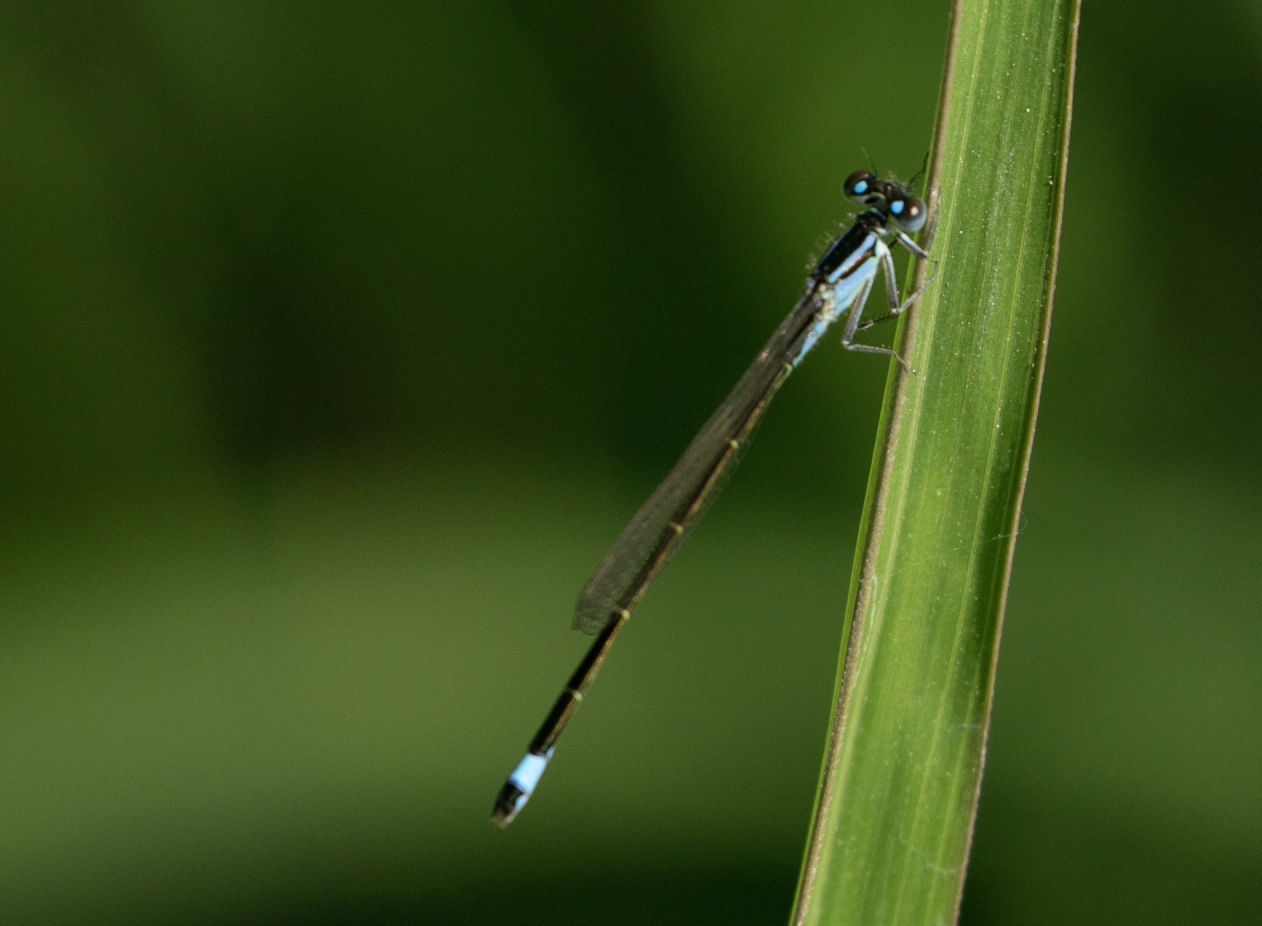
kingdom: Animalia
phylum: Arthropoda
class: Insecta
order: Odonata
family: Coenagrionidae
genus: Ischnura
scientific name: Ischnura elegans
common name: Blue-tailed damselfly
